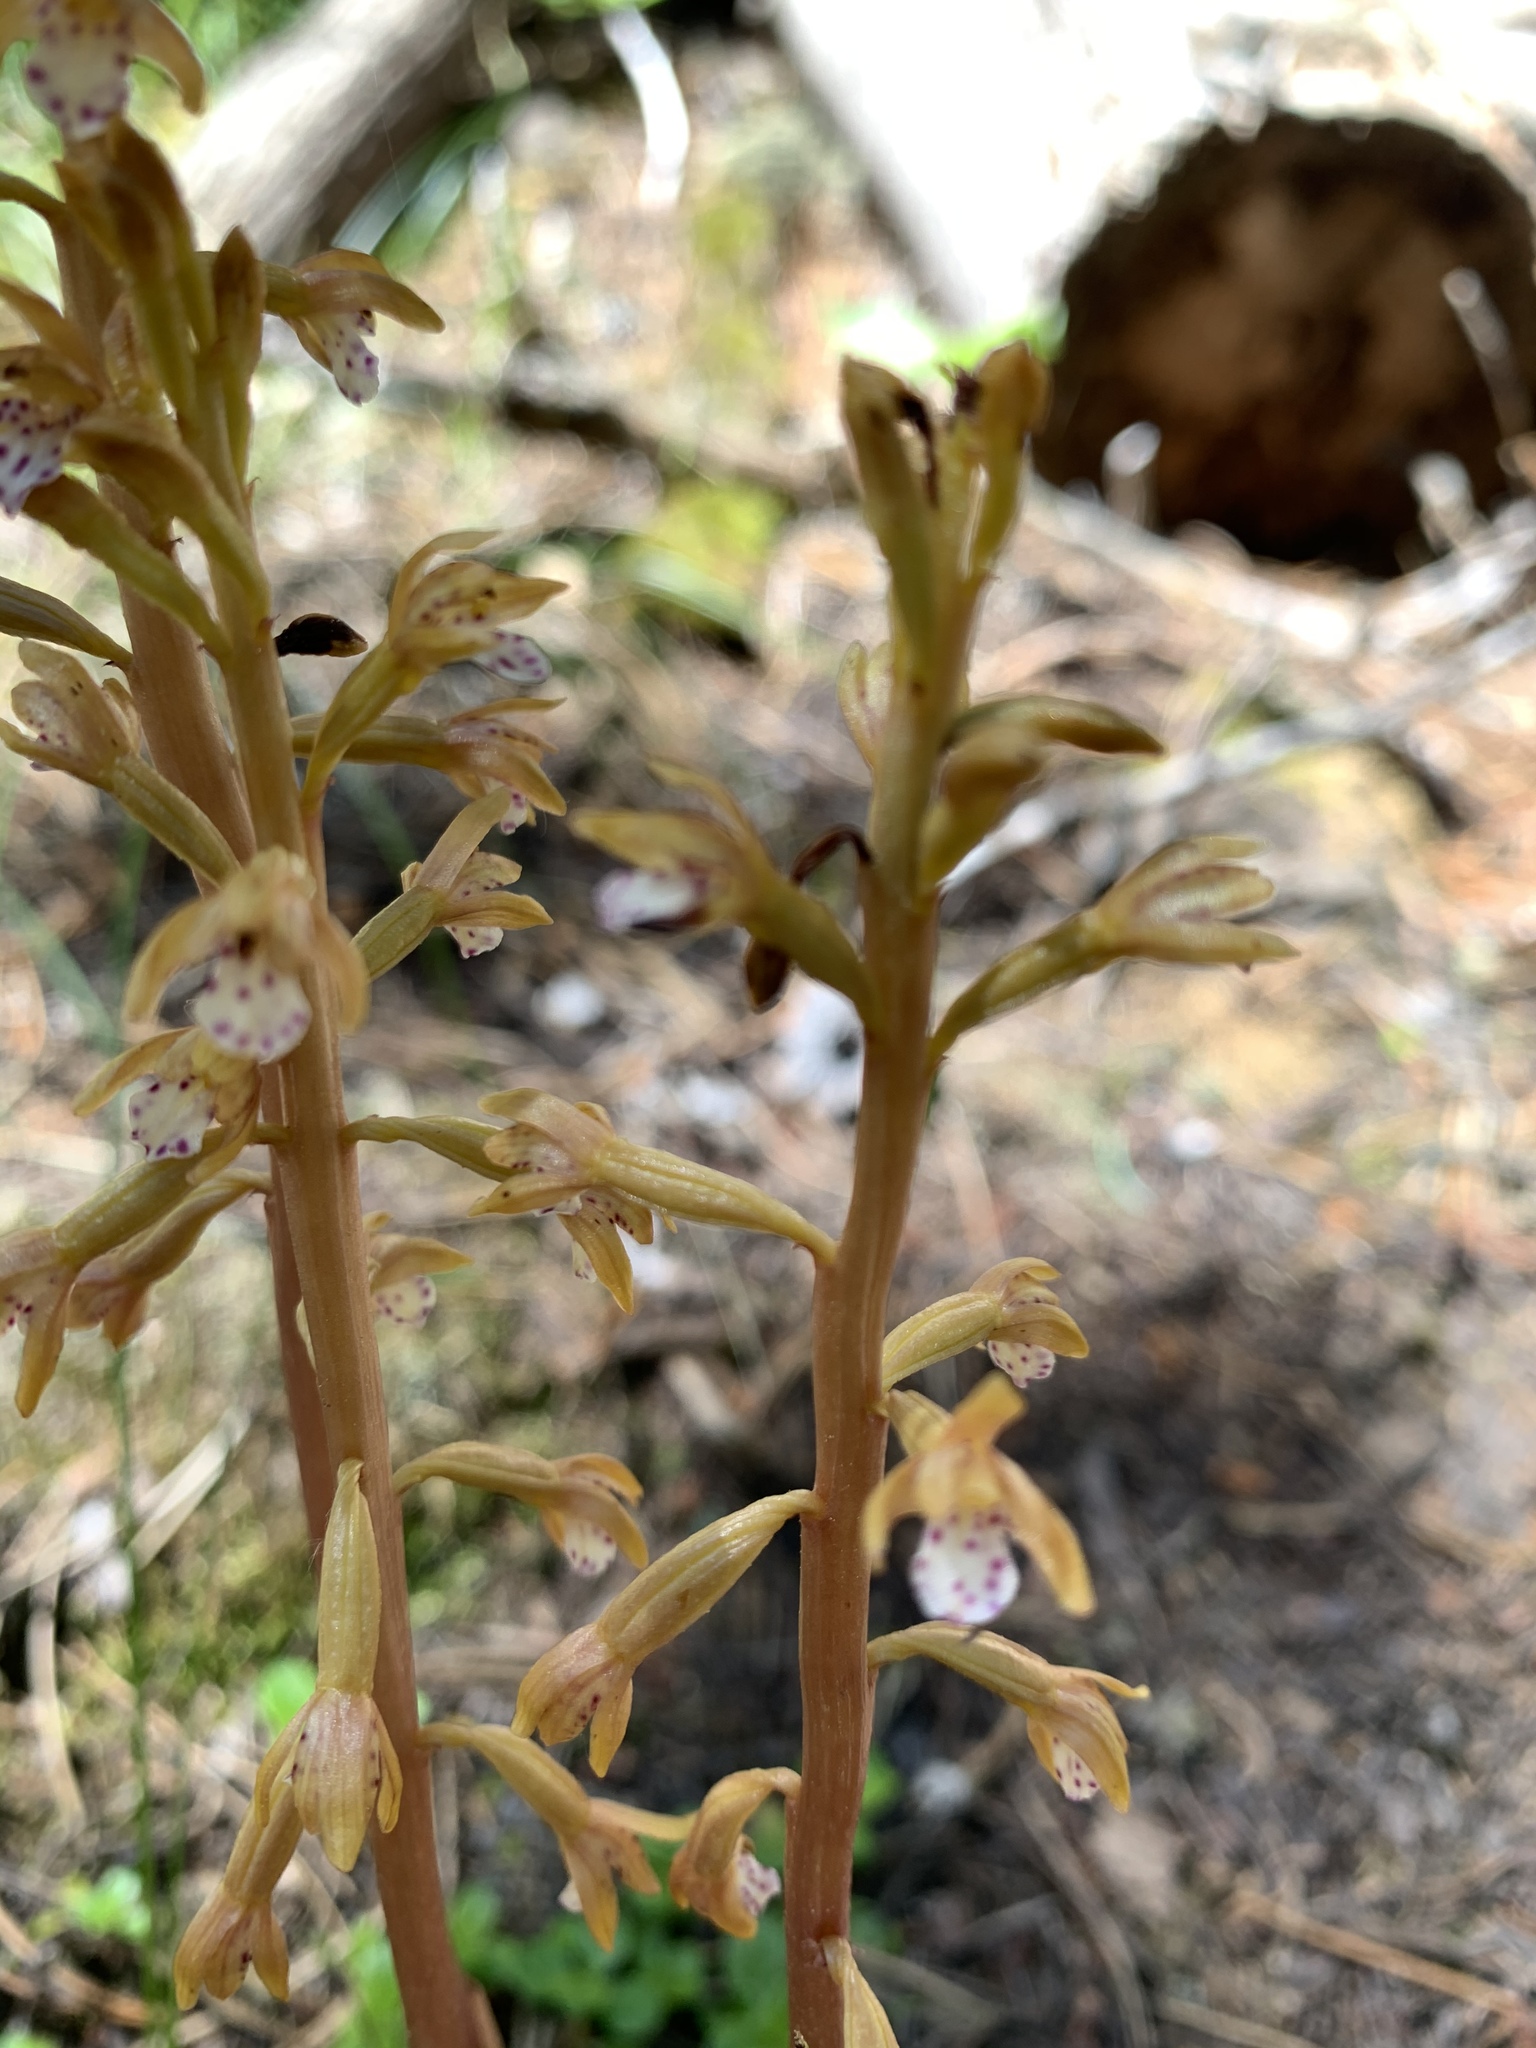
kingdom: Plantae
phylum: Tracheophyta
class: Liliopsida
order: Asparagales
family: Orchidaceae
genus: Corallorhiza
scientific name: Corallorhiza maculata
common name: Spotted coralroot
